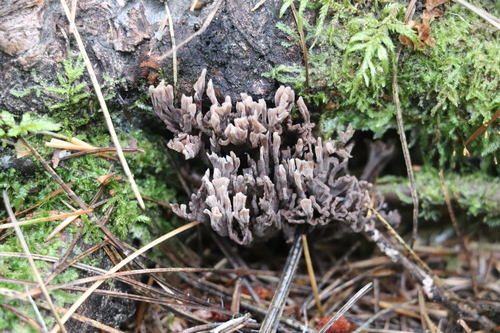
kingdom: Fungi
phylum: Basidiomycota
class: Agaricomycetes
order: Thelephorales
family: Thelephoraceae
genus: Thelephora
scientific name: Thelephora palmata
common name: Stinking earthfan
